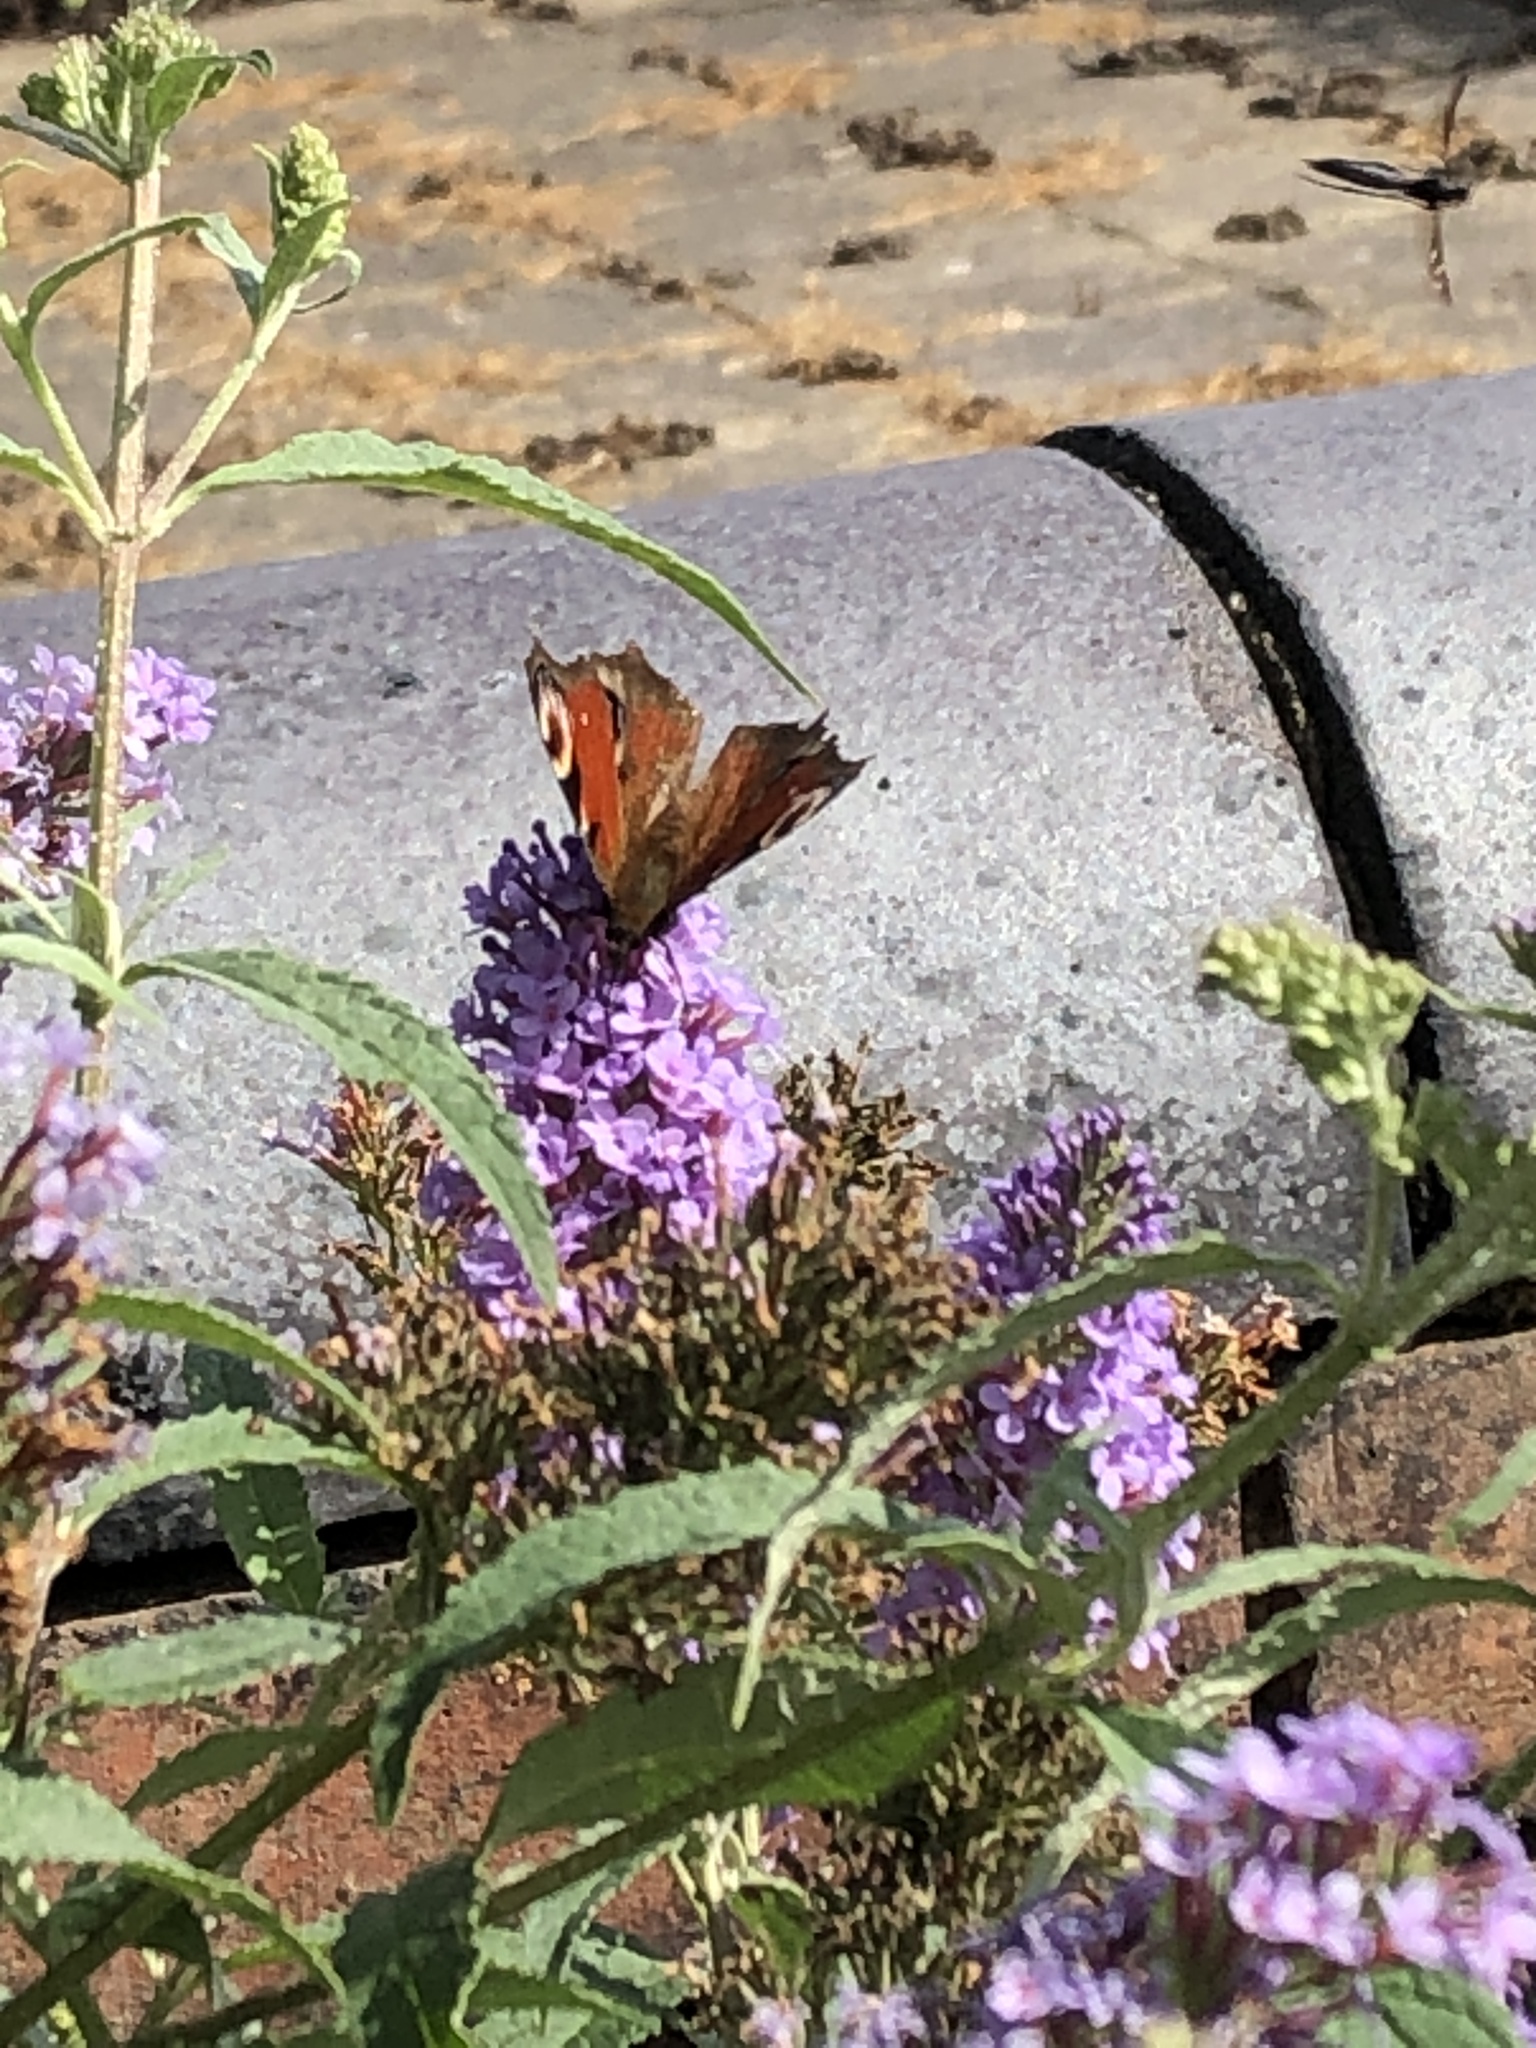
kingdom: Animalia
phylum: Arthropoda
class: Insecta
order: Lepidoptera
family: Nymphalidae
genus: Aglais
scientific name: Aglais io
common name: Peacock
